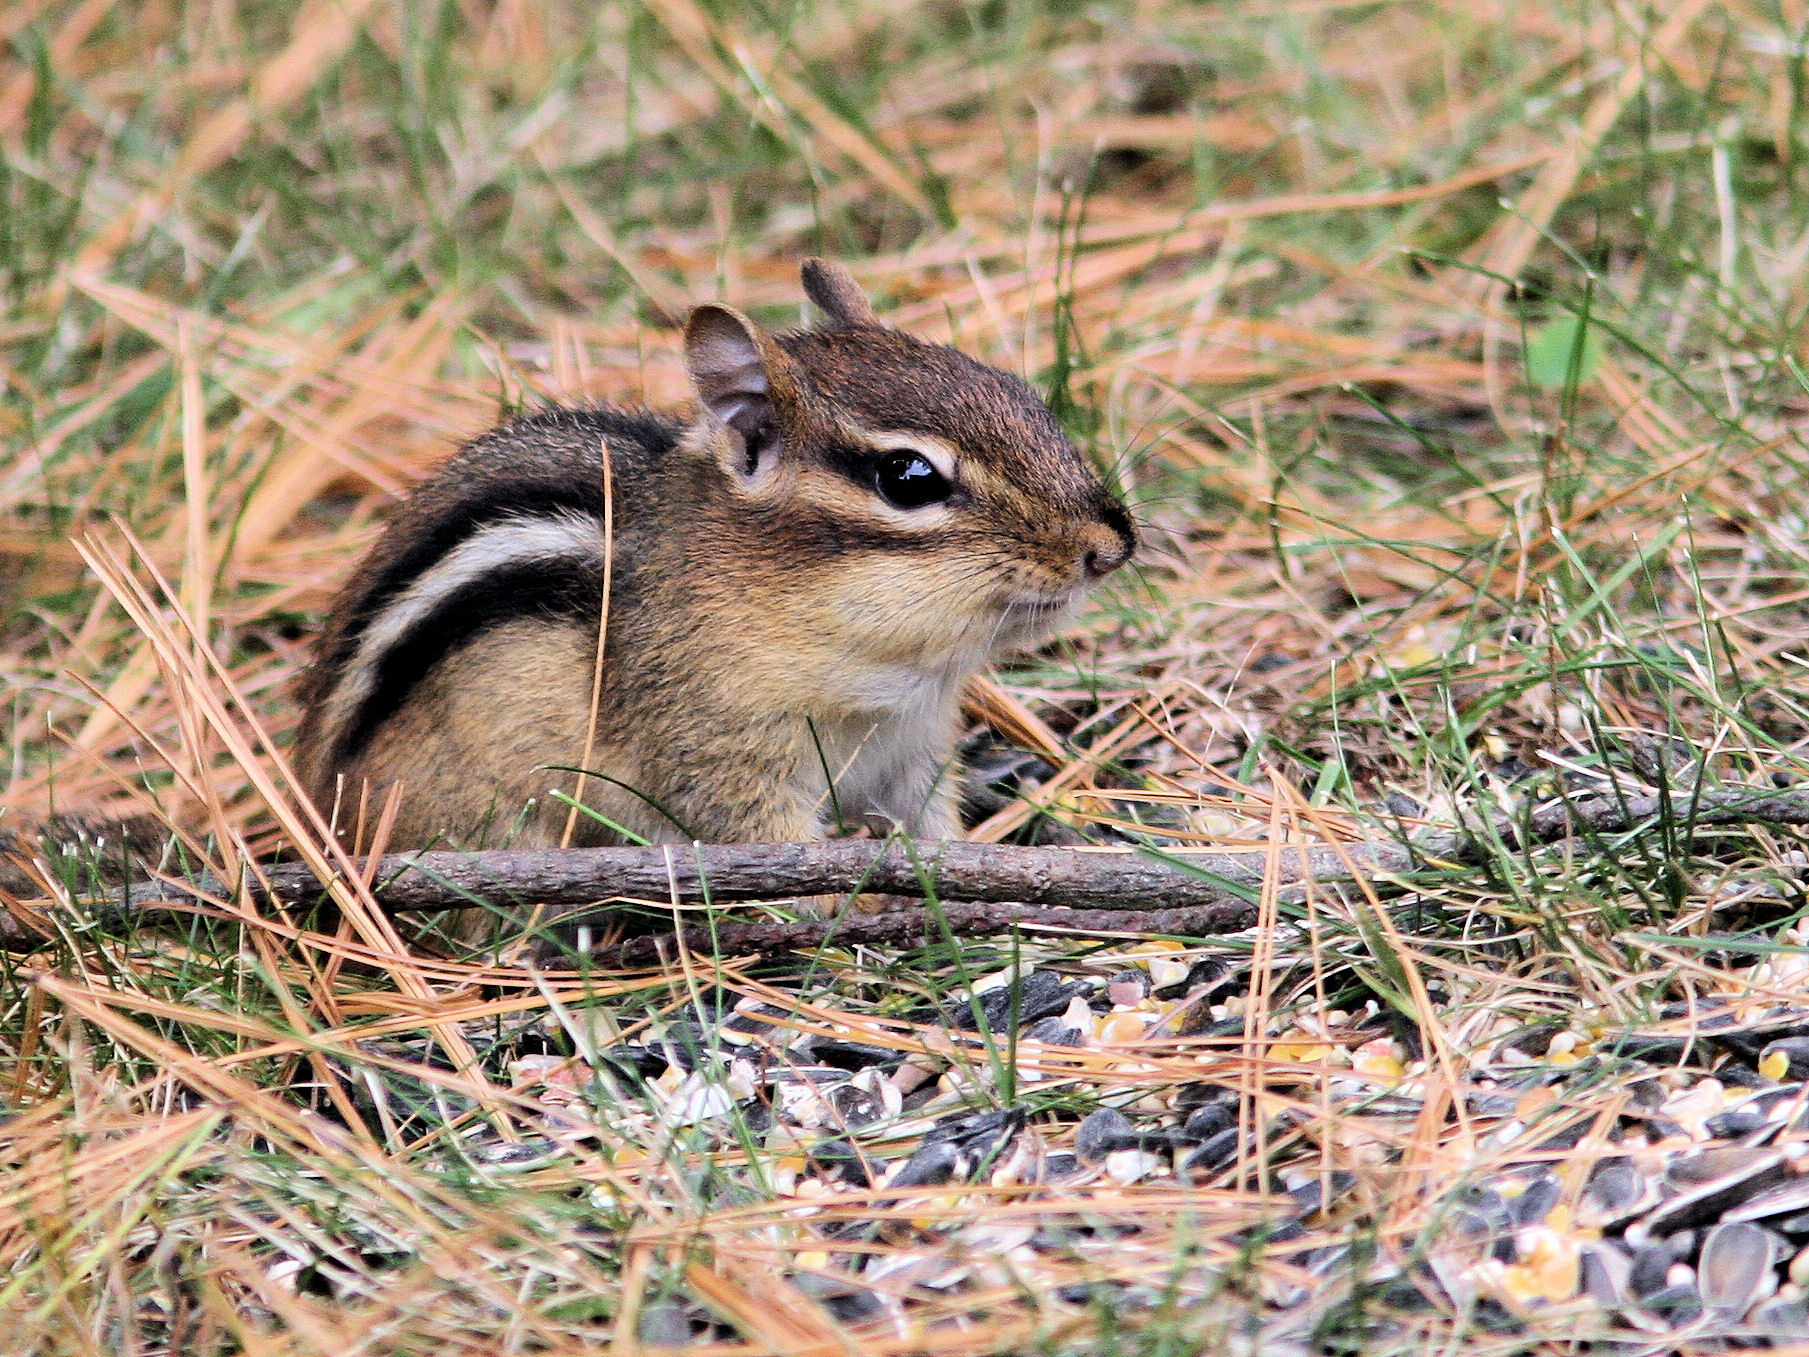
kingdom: Animalia
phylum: Chordata
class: Mammalia
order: Rodentia
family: Sciuridae
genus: Tamias
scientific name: Tamias striatus
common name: Eastern chipmunk
